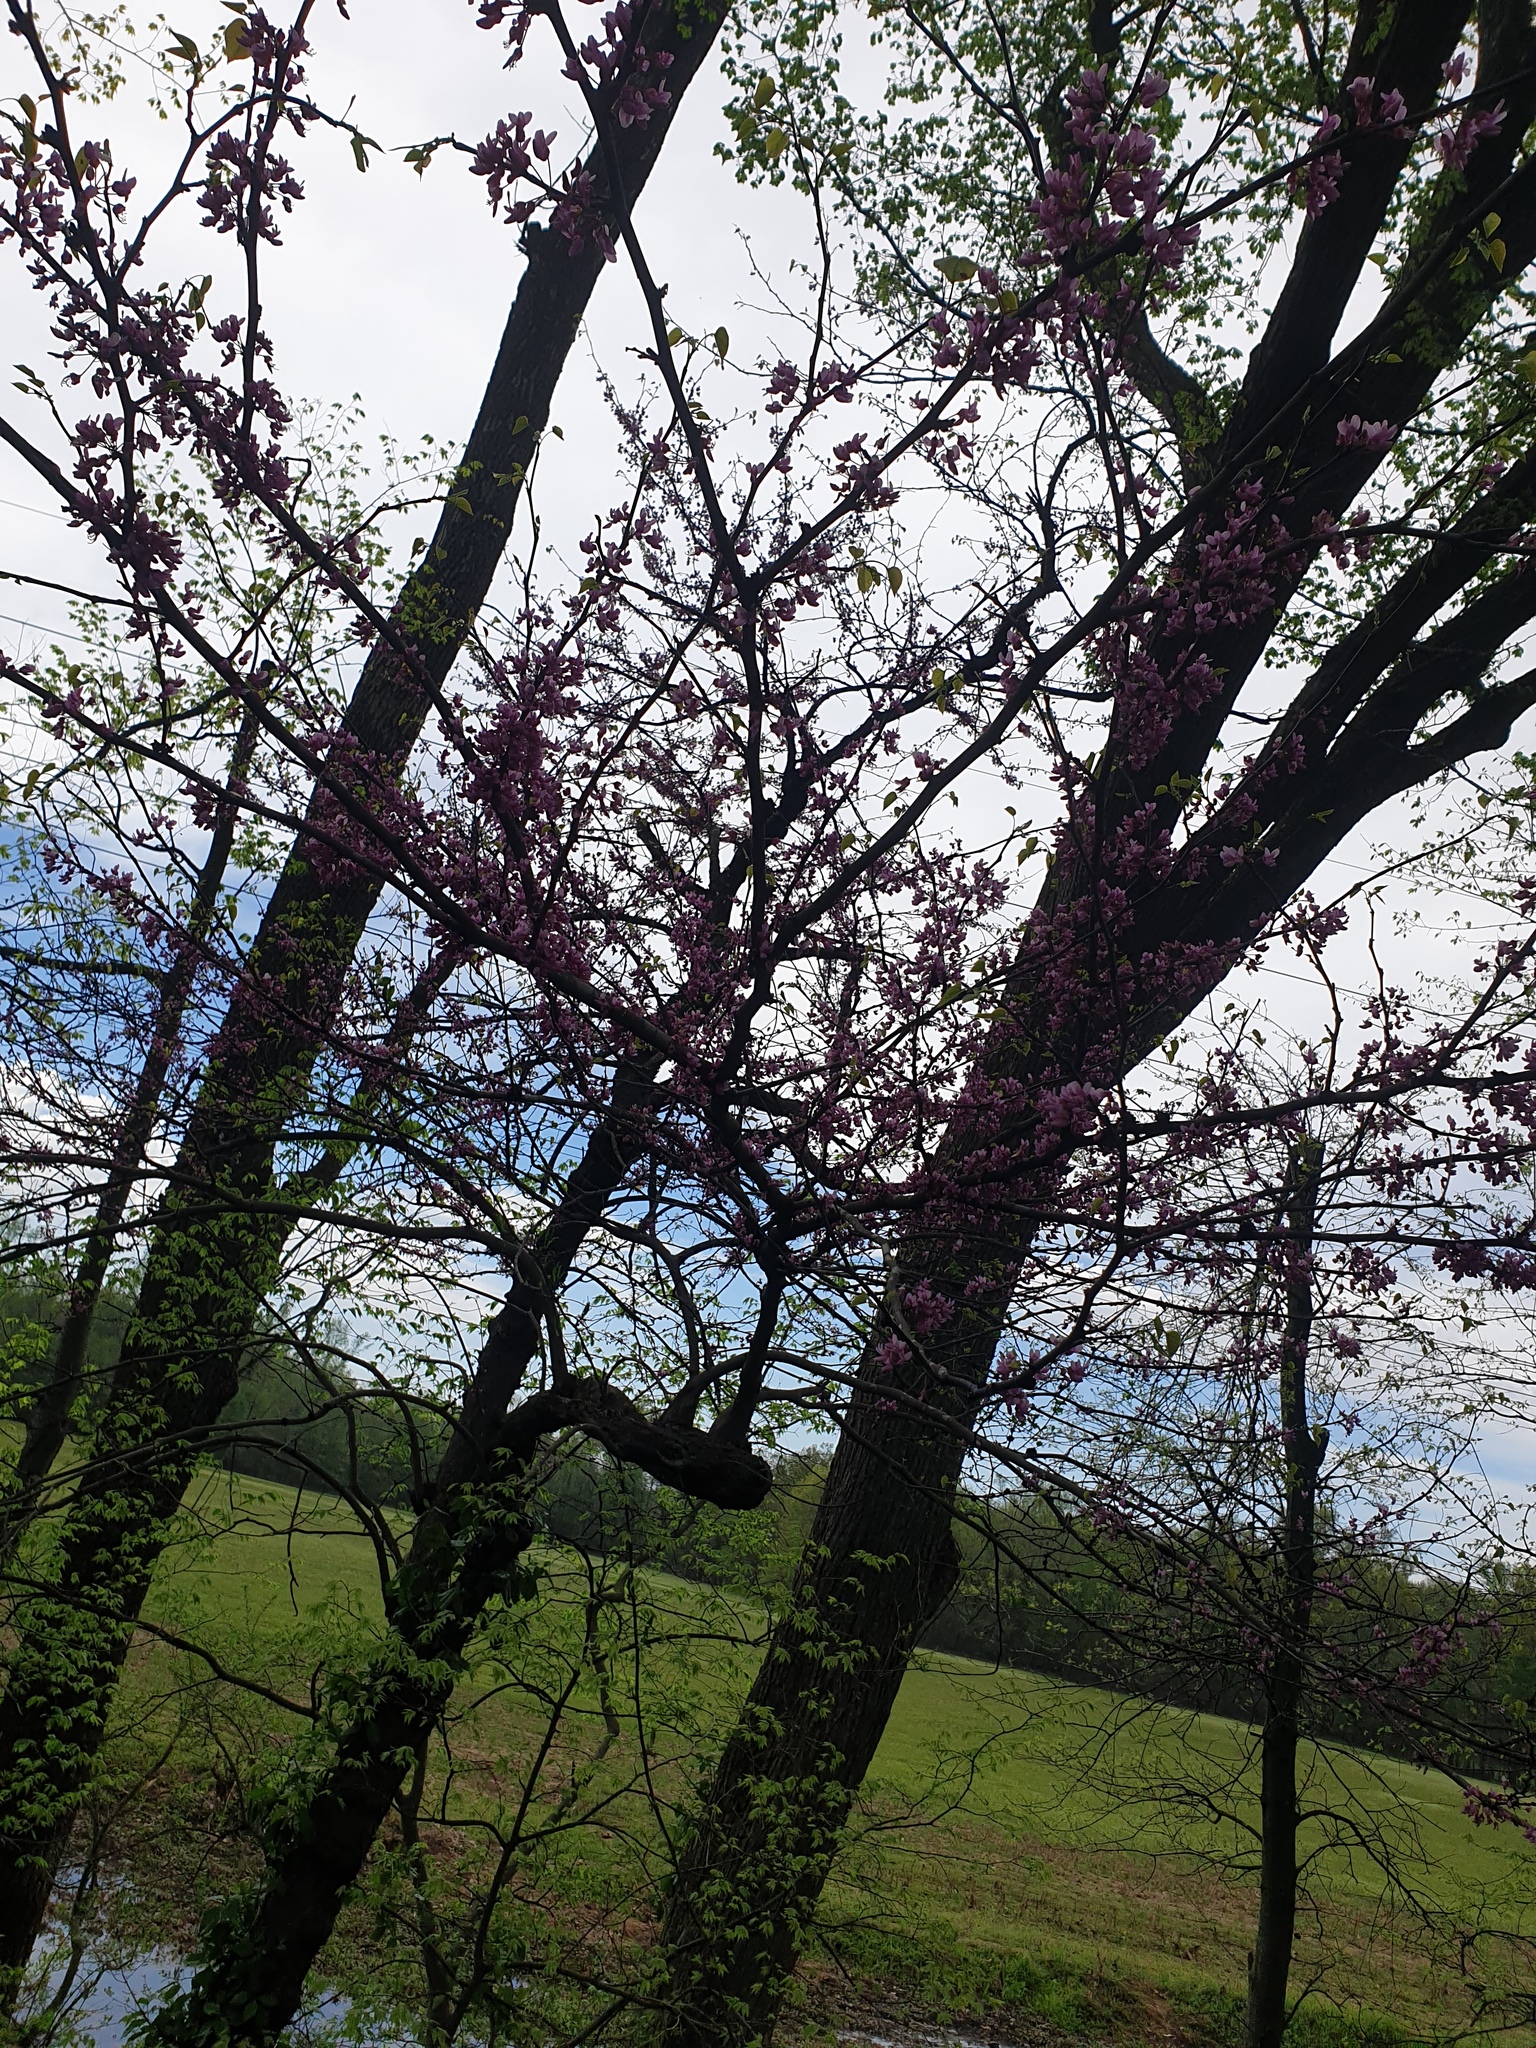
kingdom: Plantae
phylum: Tracheophyta
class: Magnoliopsida
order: Fabales
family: Fabaceae
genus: Cercis
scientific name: Cercis canadensis
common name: Eastern redbud
